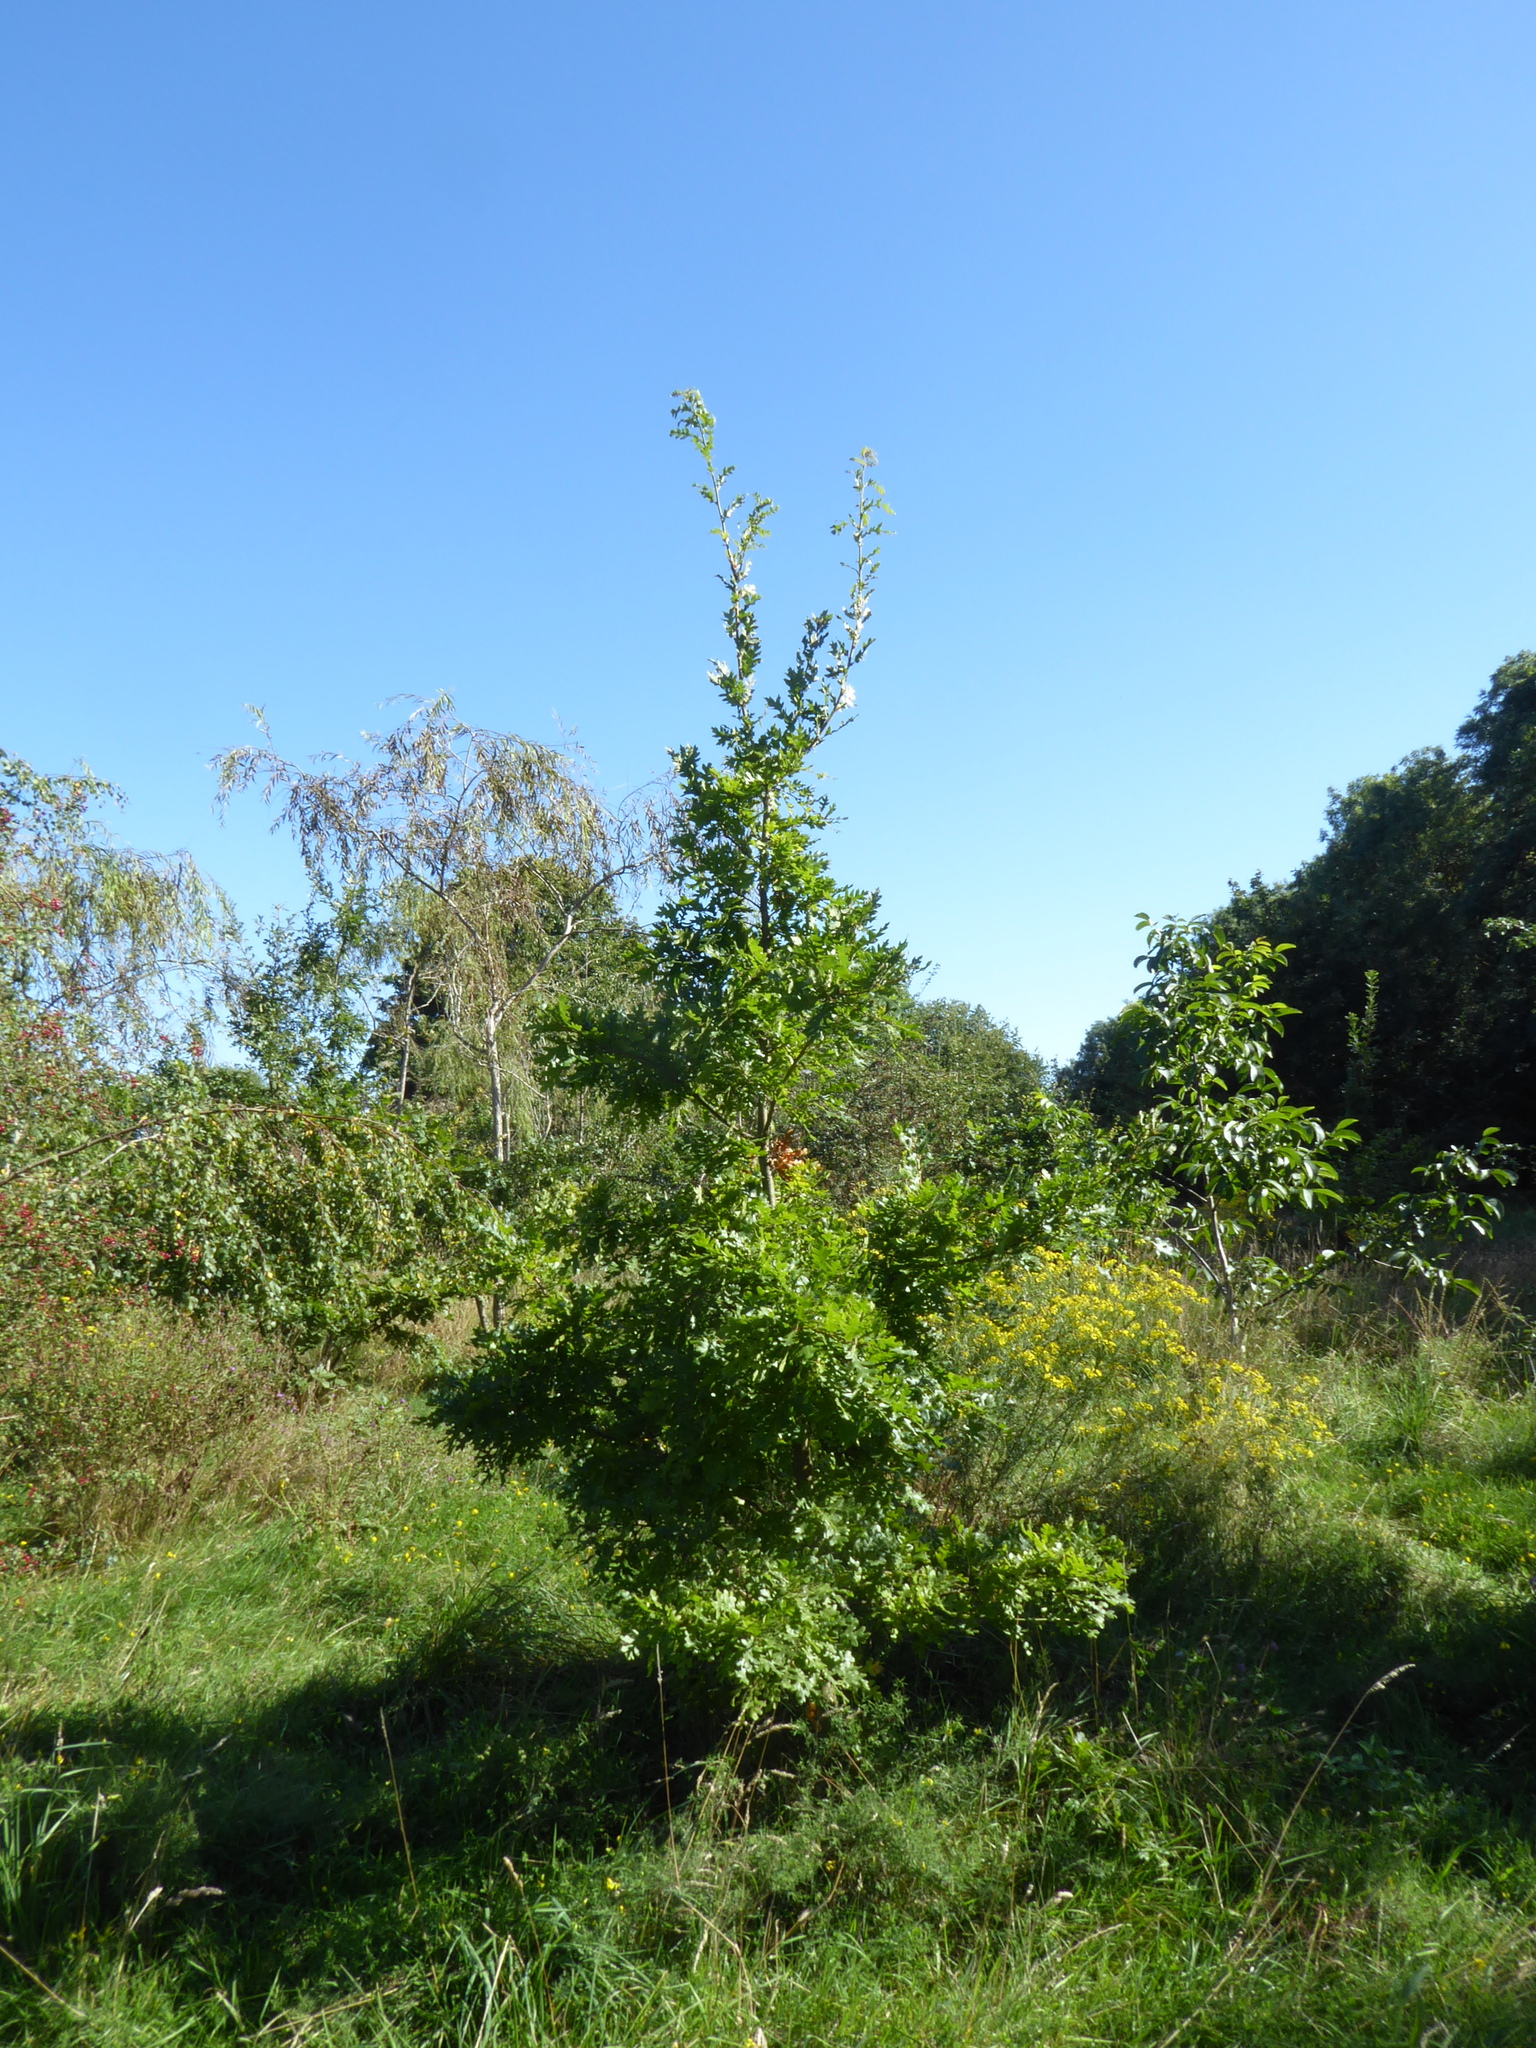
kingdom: Plantae
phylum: Tracheophyta
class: Magnoliopsida
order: Fagales
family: Fagaceae
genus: Quercus
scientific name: Quercus cerris
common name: Turkey oak
